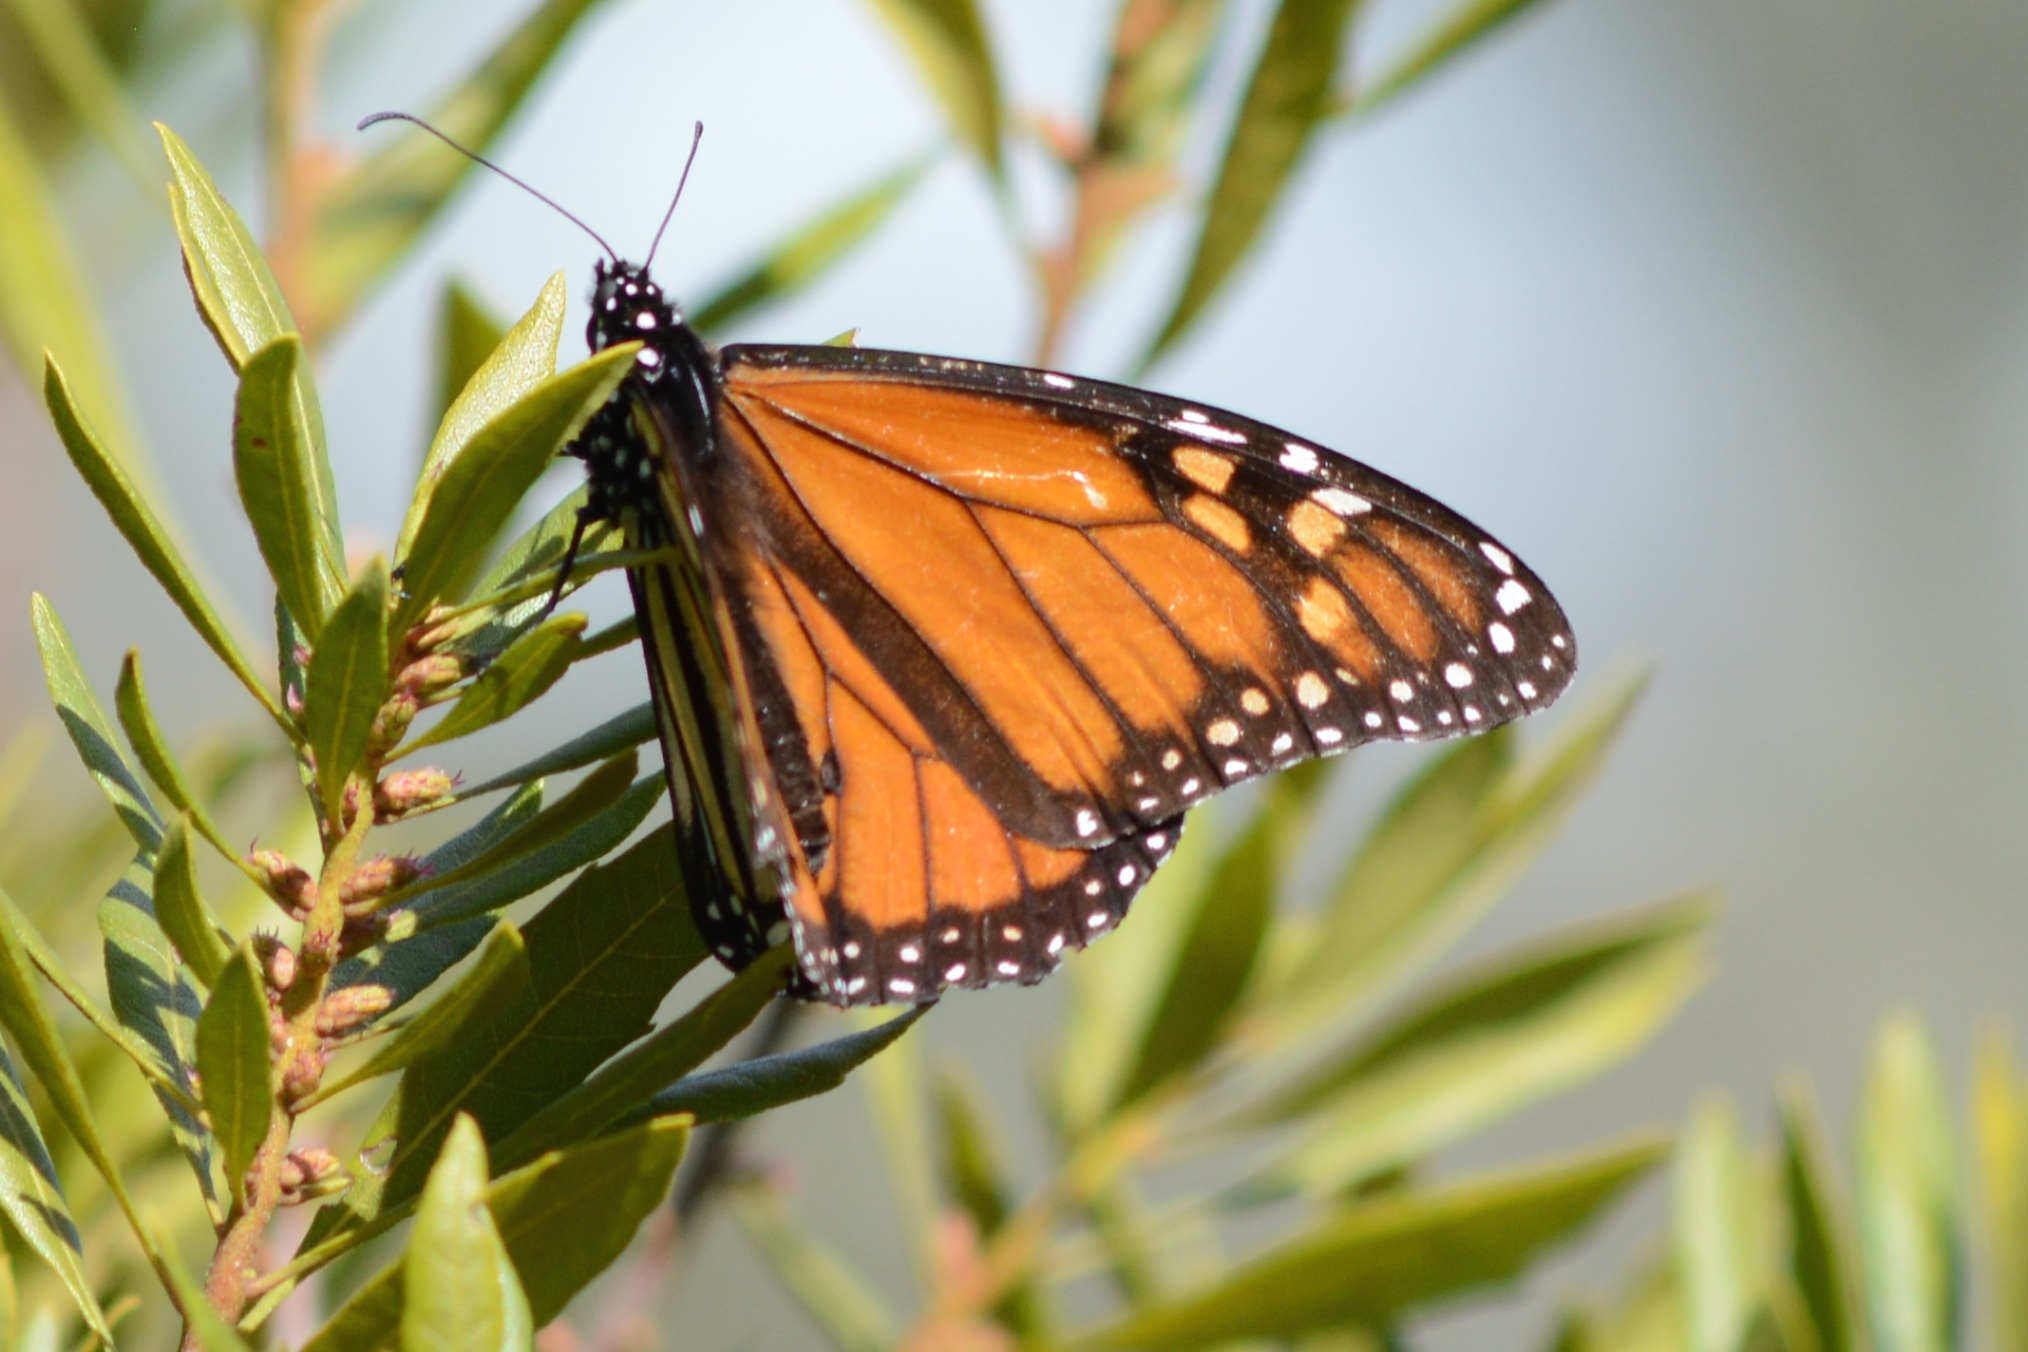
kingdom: Animalia
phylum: Arthropoda
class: Insecta
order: Lepidoptera
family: Nymphalidae
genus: Danaus
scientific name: Danaus plexippus
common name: Monarch
